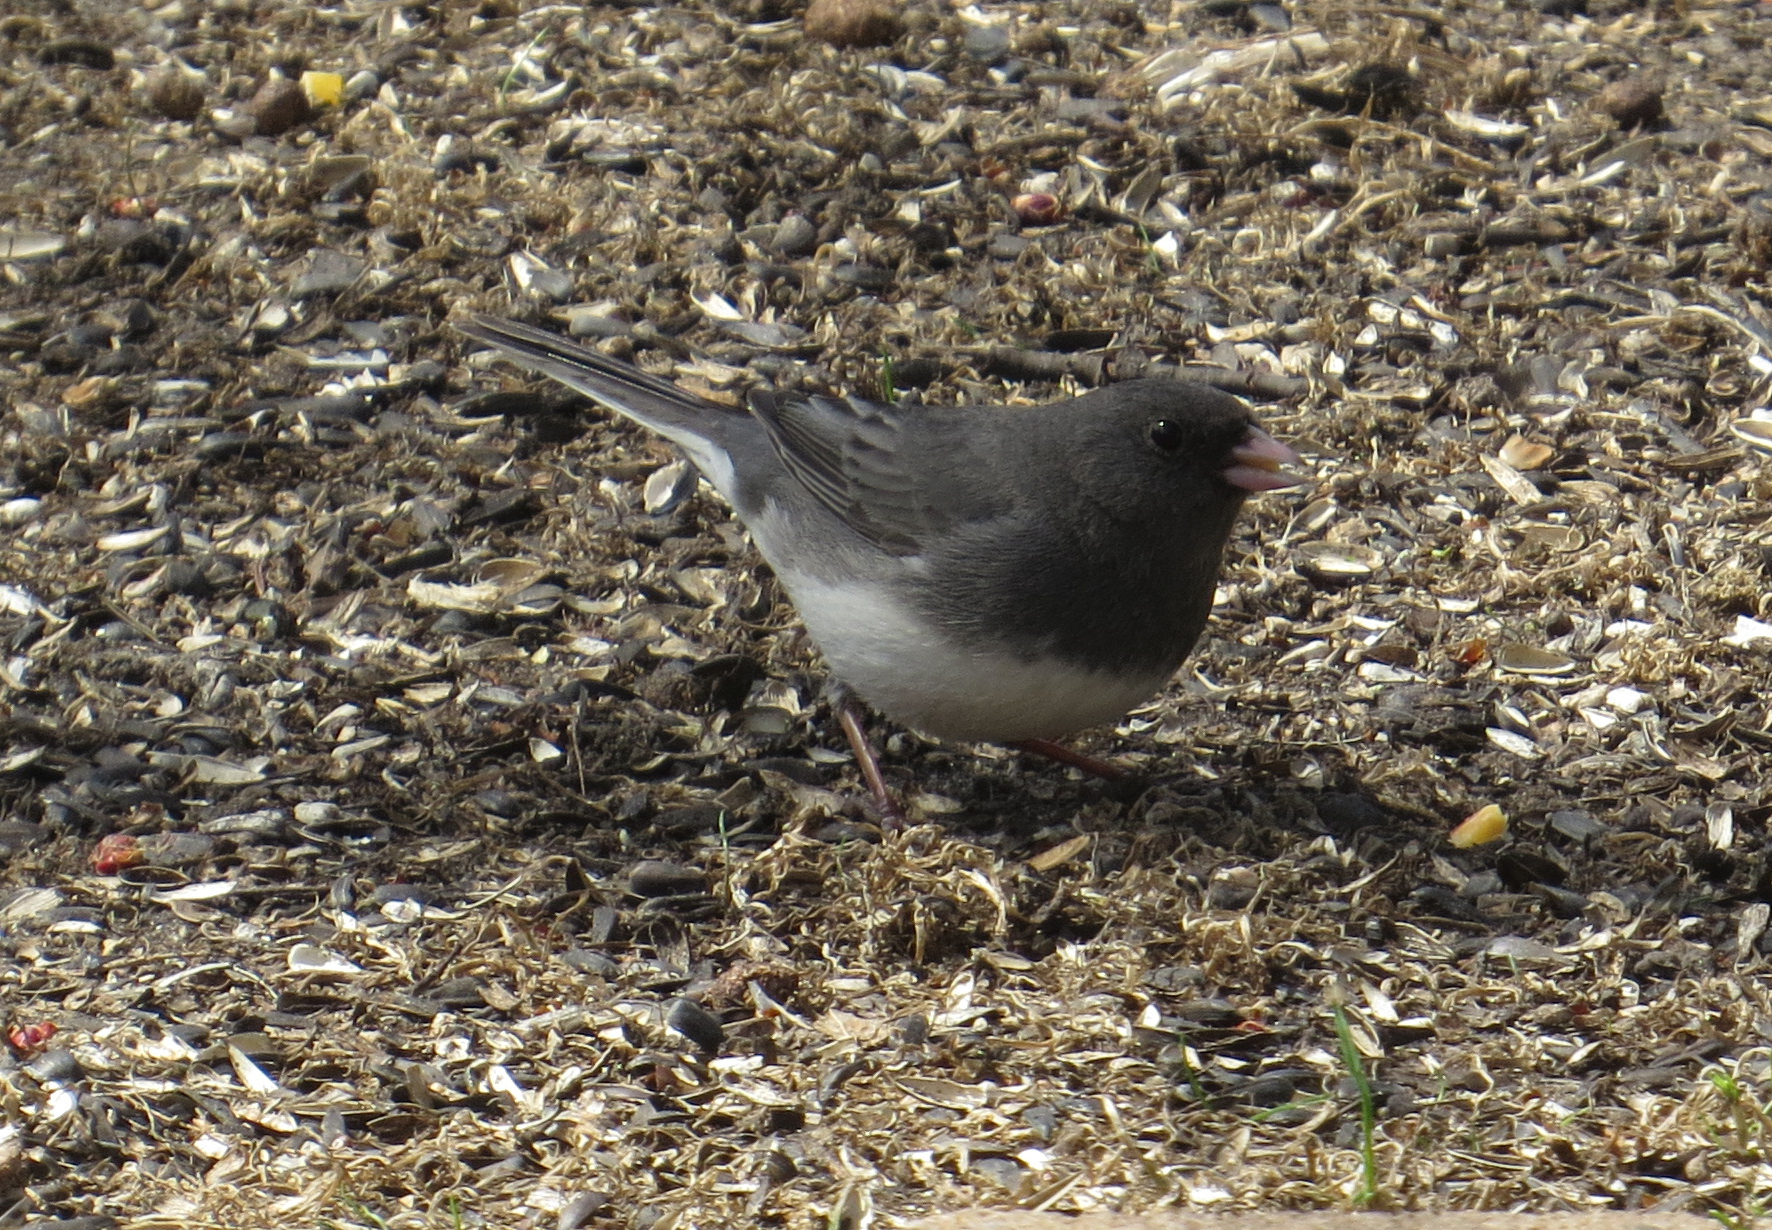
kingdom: Animalia
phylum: Chordata
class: Aves
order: Passeriformes
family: Passerellidae
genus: Junco
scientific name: Junco hyemalis
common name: Dark-eyed junco
